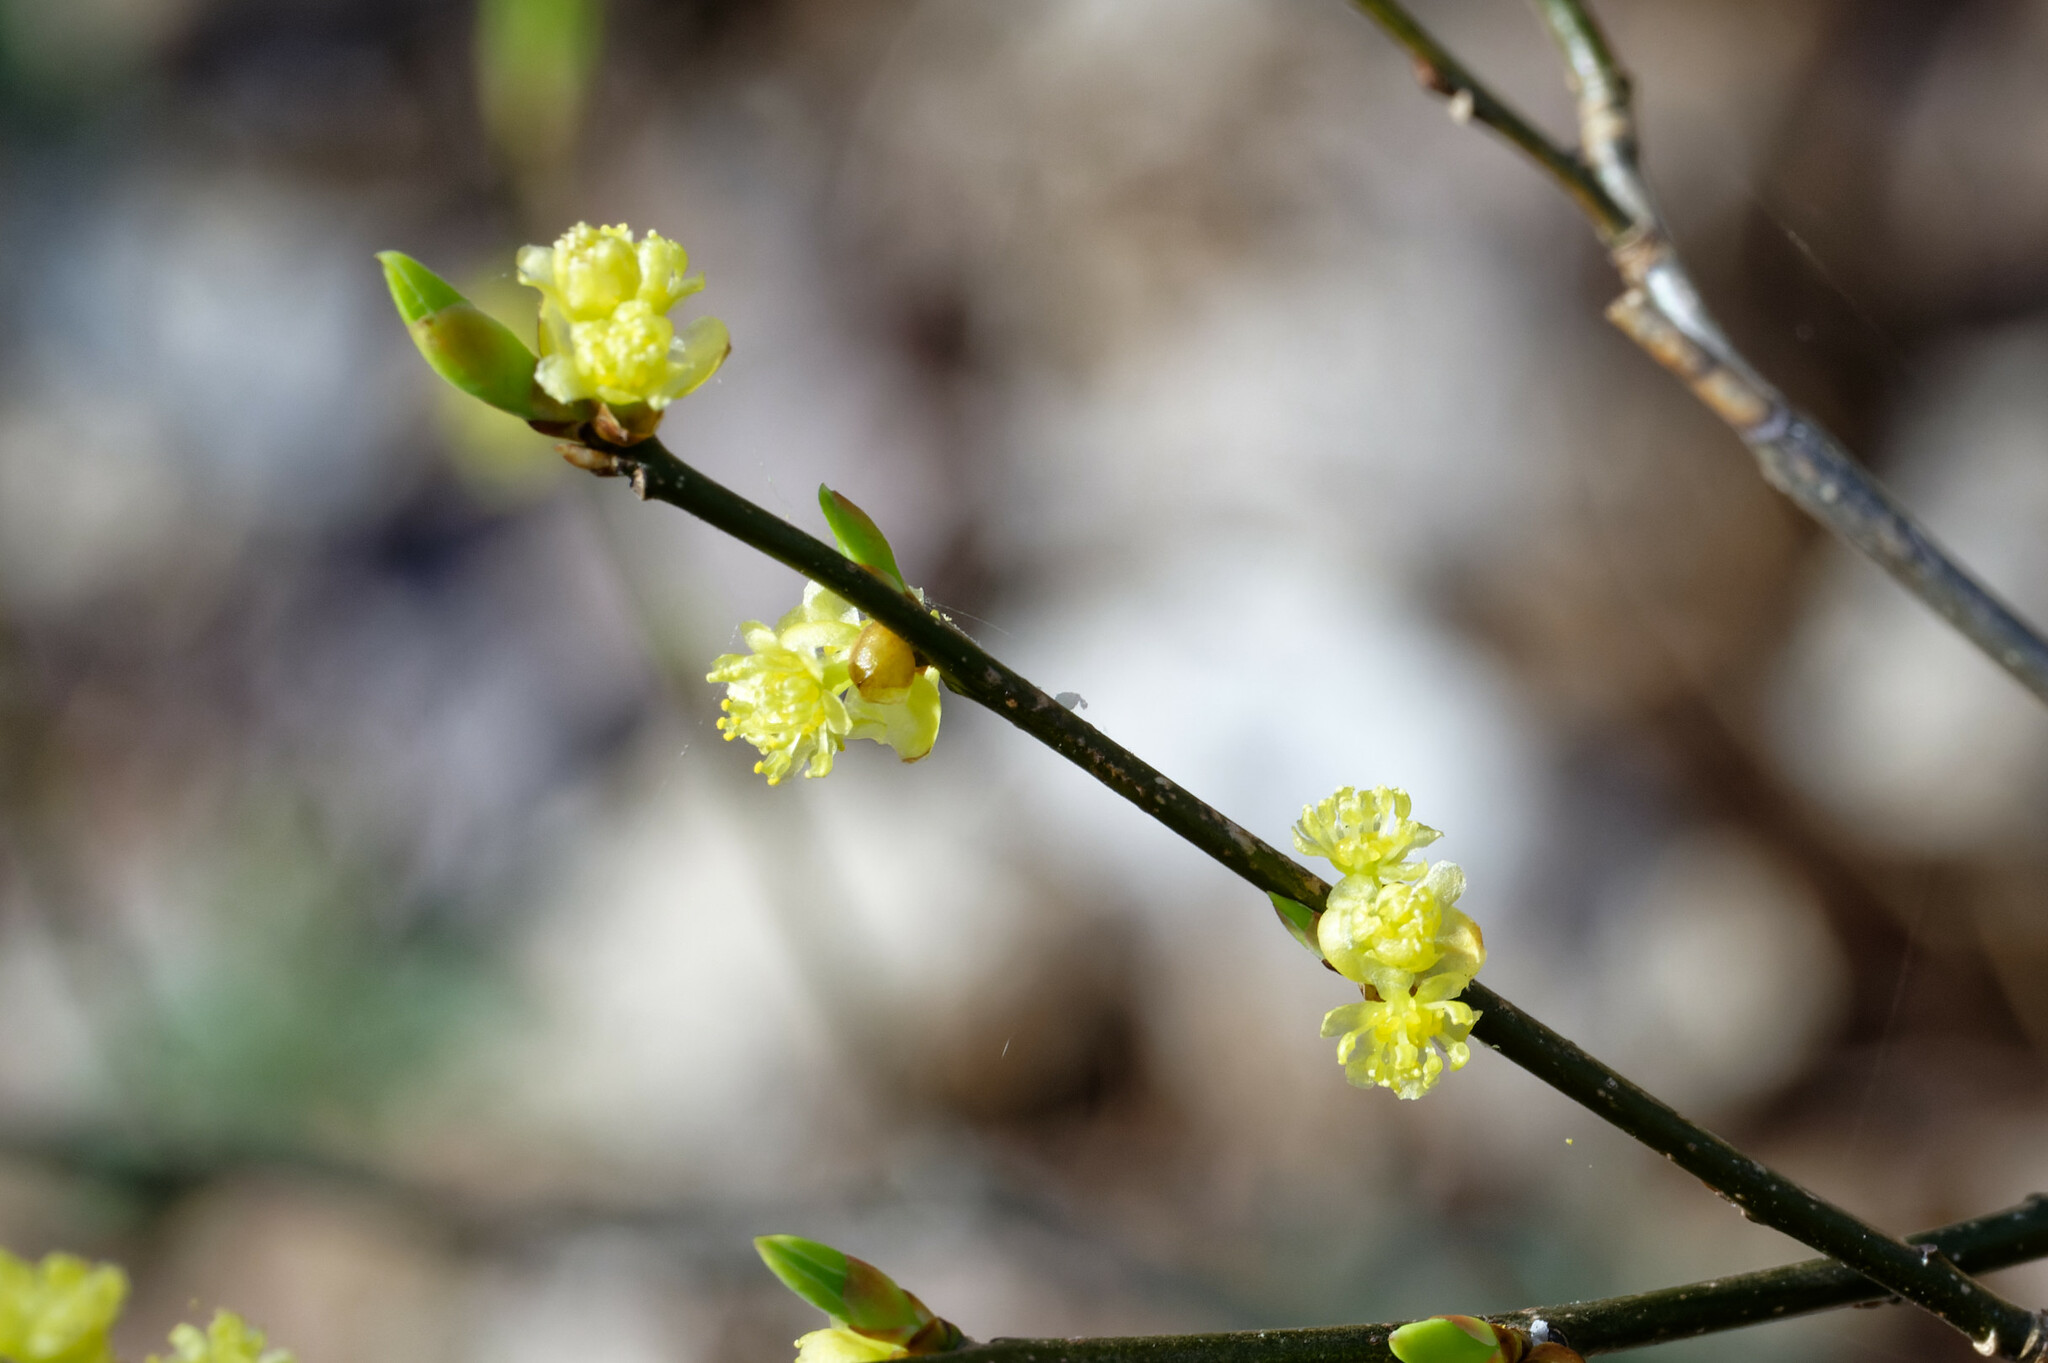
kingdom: Plantae
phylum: Tracheophyta
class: Magnoliopsida
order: Laurales
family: Lauraceae
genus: Lindera
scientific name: Lindera benzoin
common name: Spicebush
